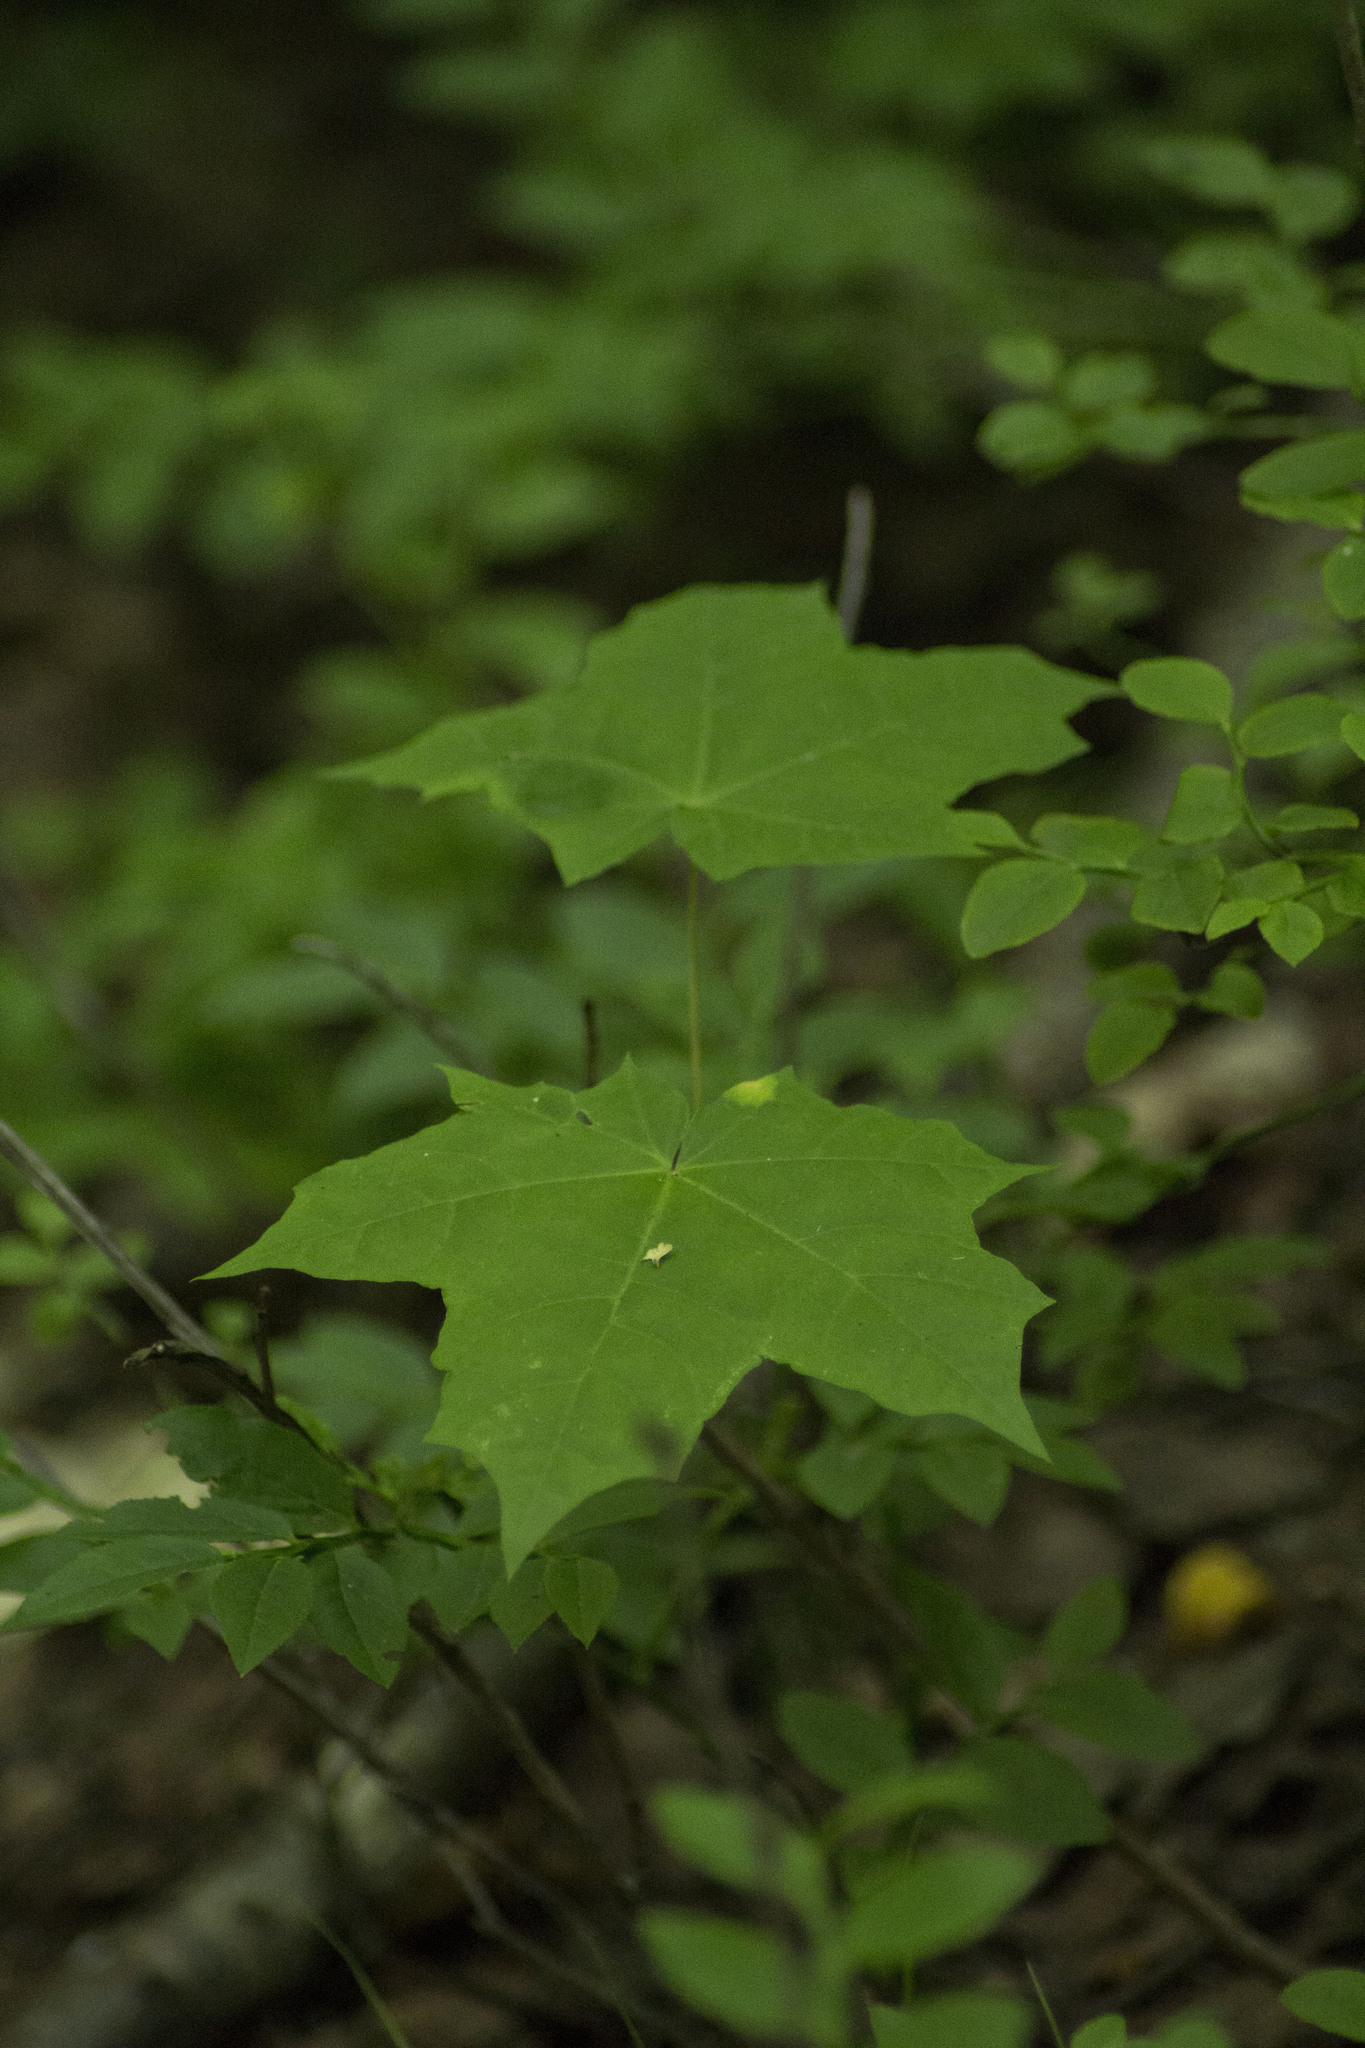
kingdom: Plantae
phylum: Tracheophyta
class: Magnoliopsida
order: Sapindales
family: Sapindaceae
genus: Acer
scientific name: Acer platanoides
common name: Norway maple
